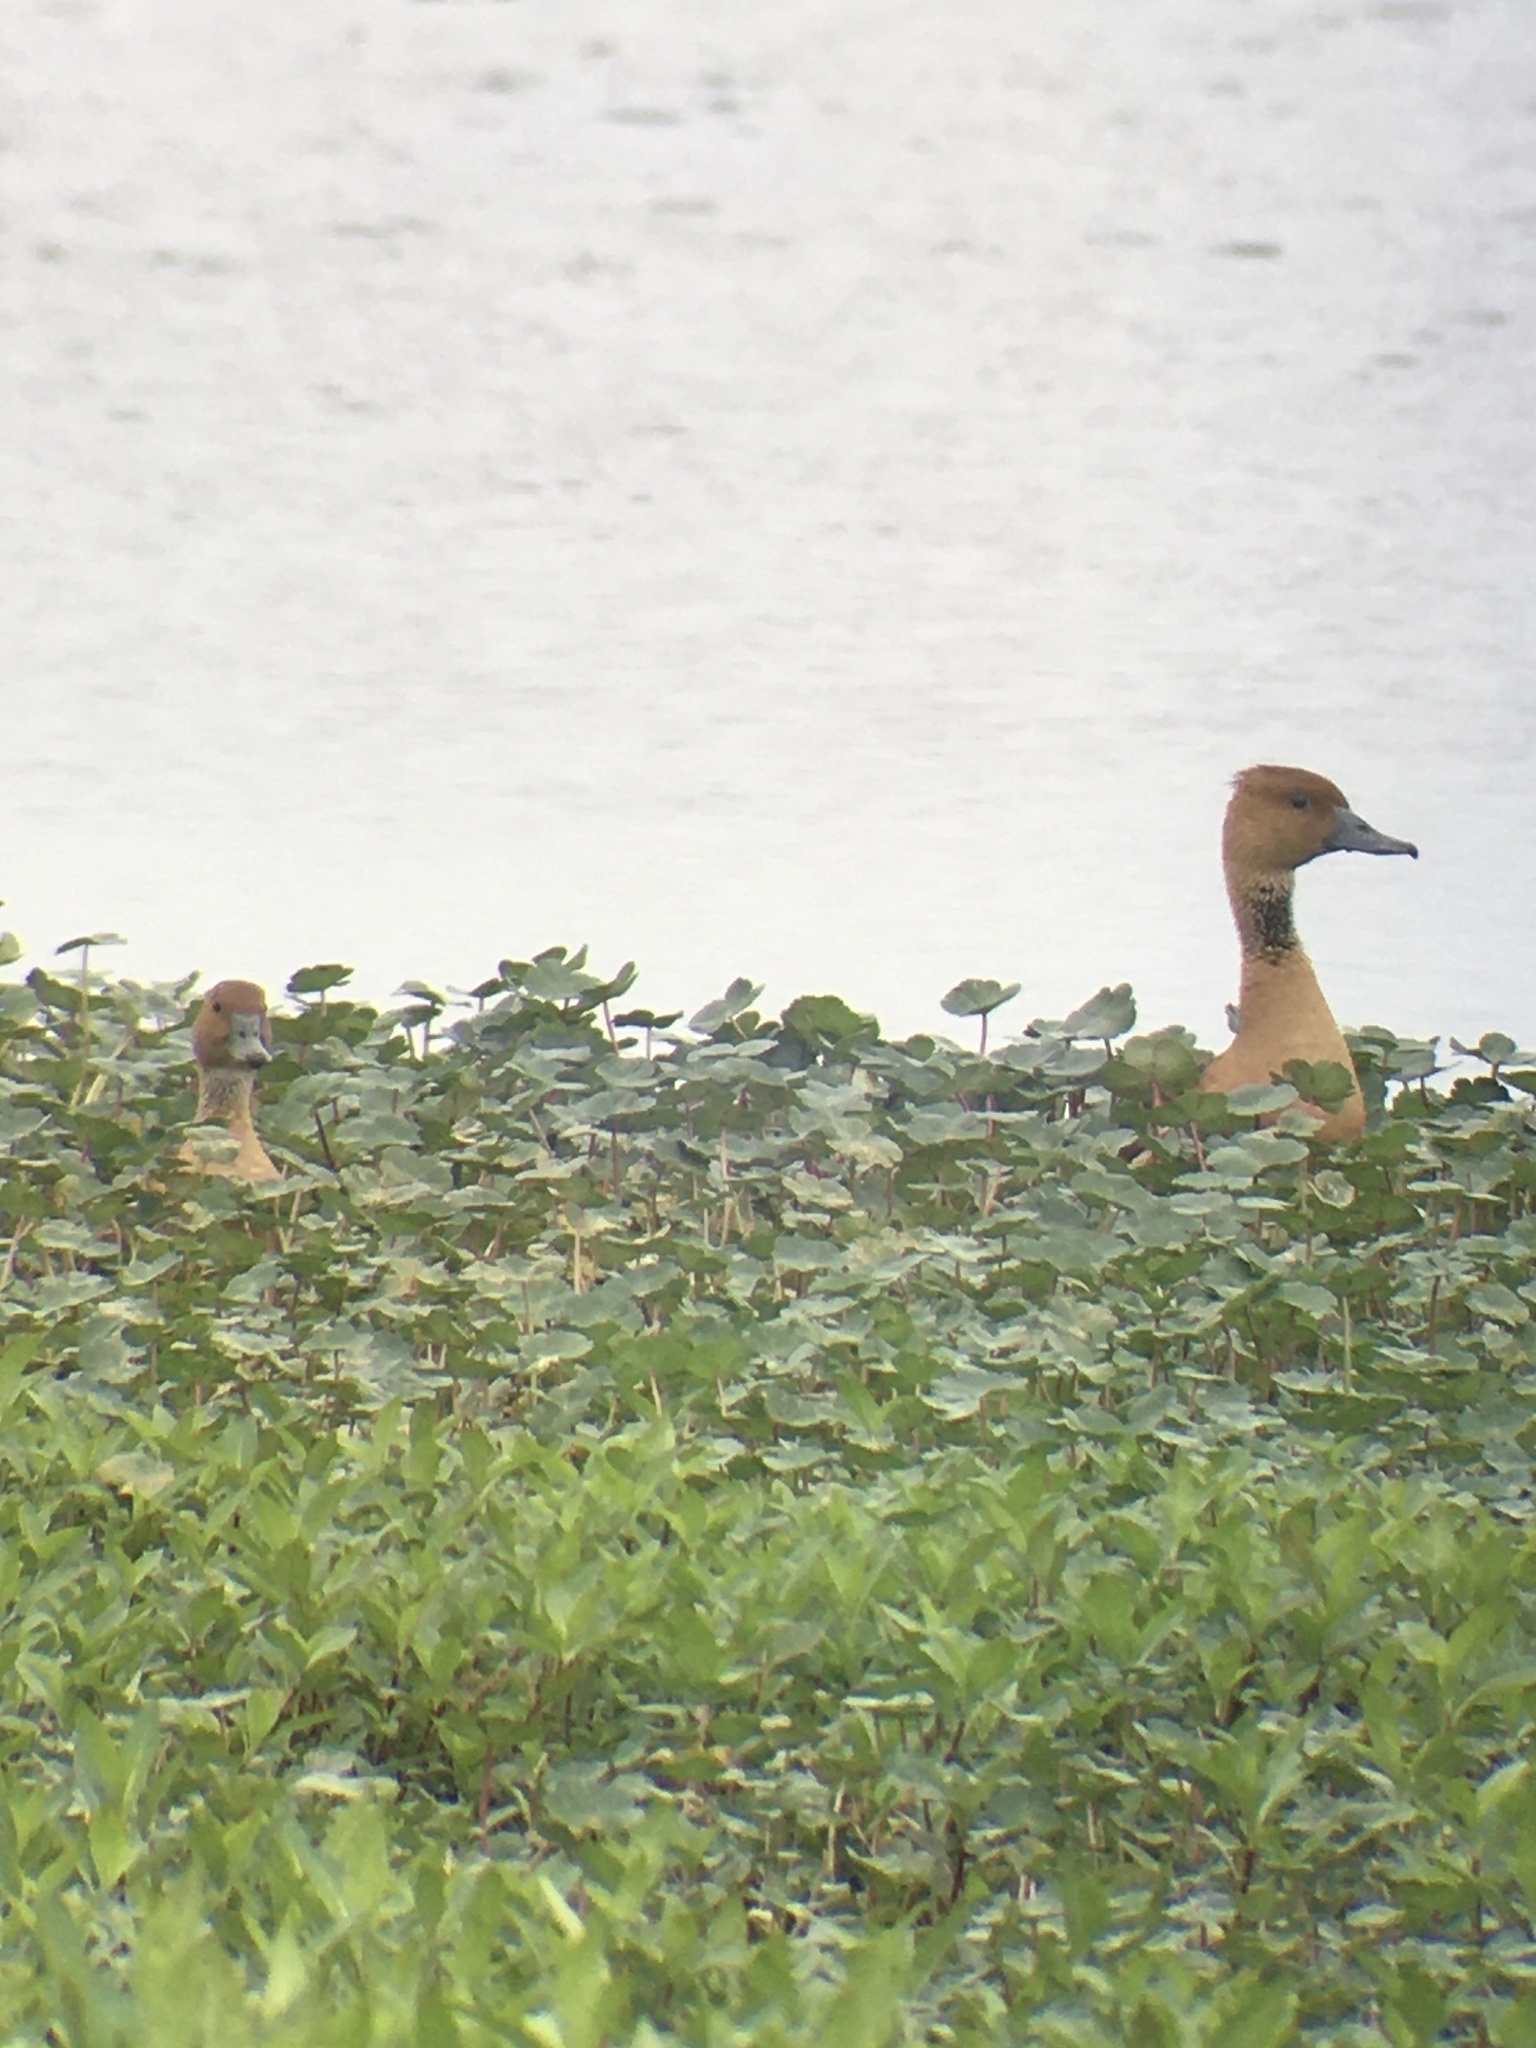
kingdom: Animalia
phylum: Chordata
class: Aves
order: Anseriformes
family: Anatidae
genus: Dendrocygna
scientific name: Dendrocygna bicolor
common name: Fulvous whistling duck
